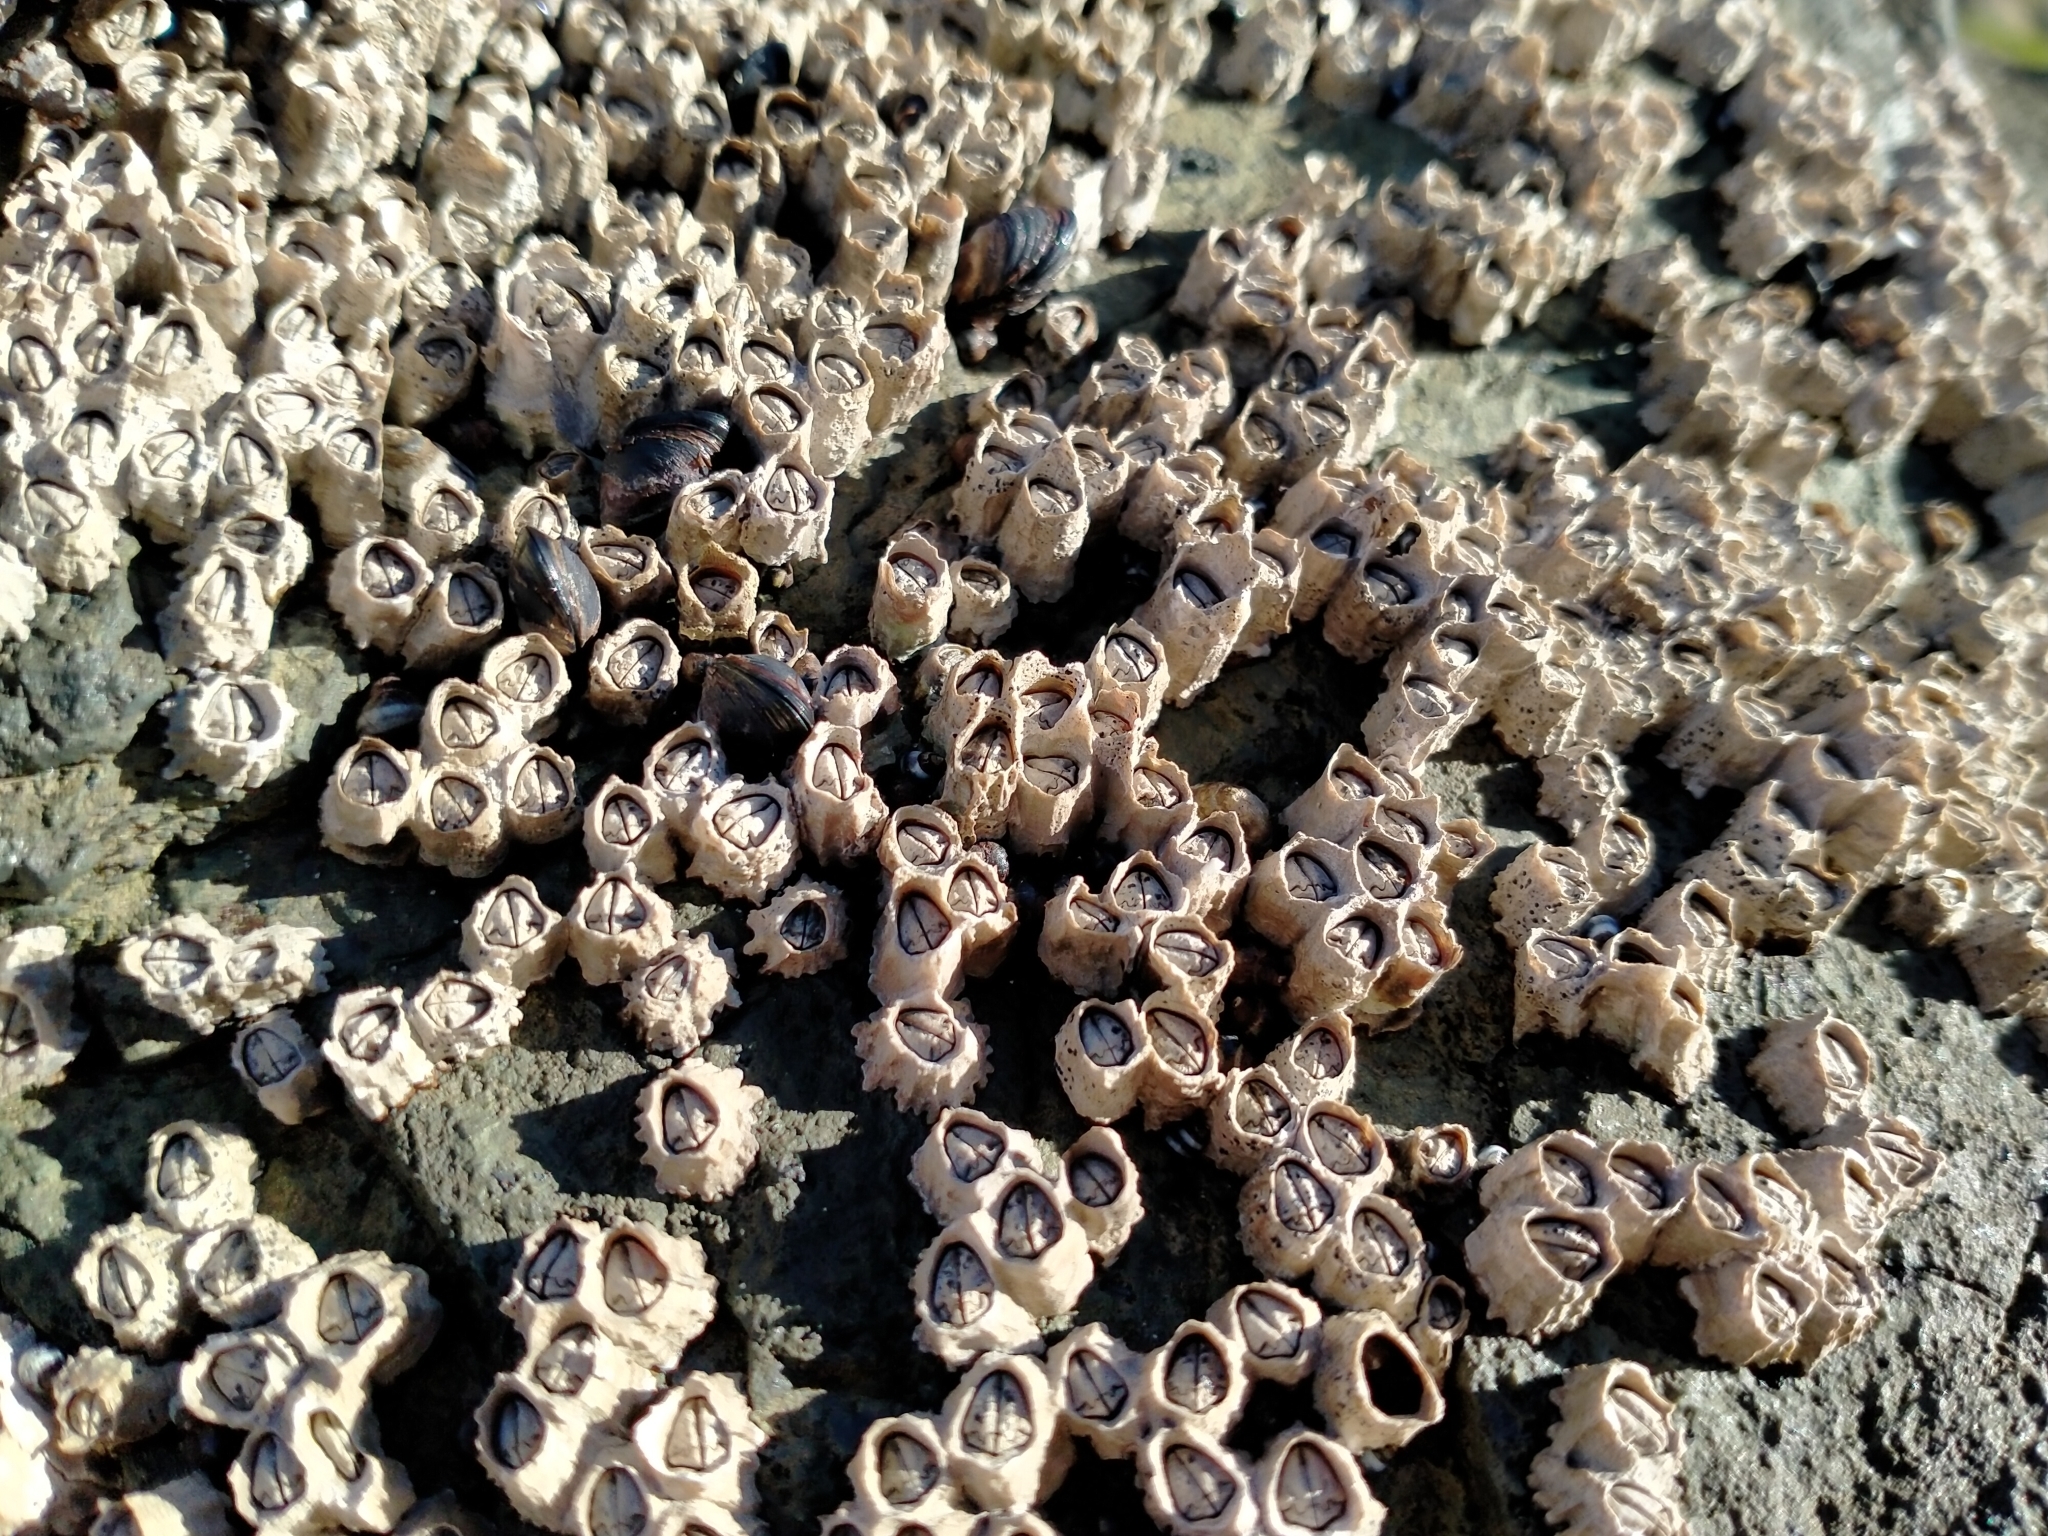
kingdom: Animalia
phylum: Arthropoda
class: Maxillopoda
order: Sessilia
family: Chthamalidae
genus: Chamaesipho
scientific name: Chamaesipho columna
